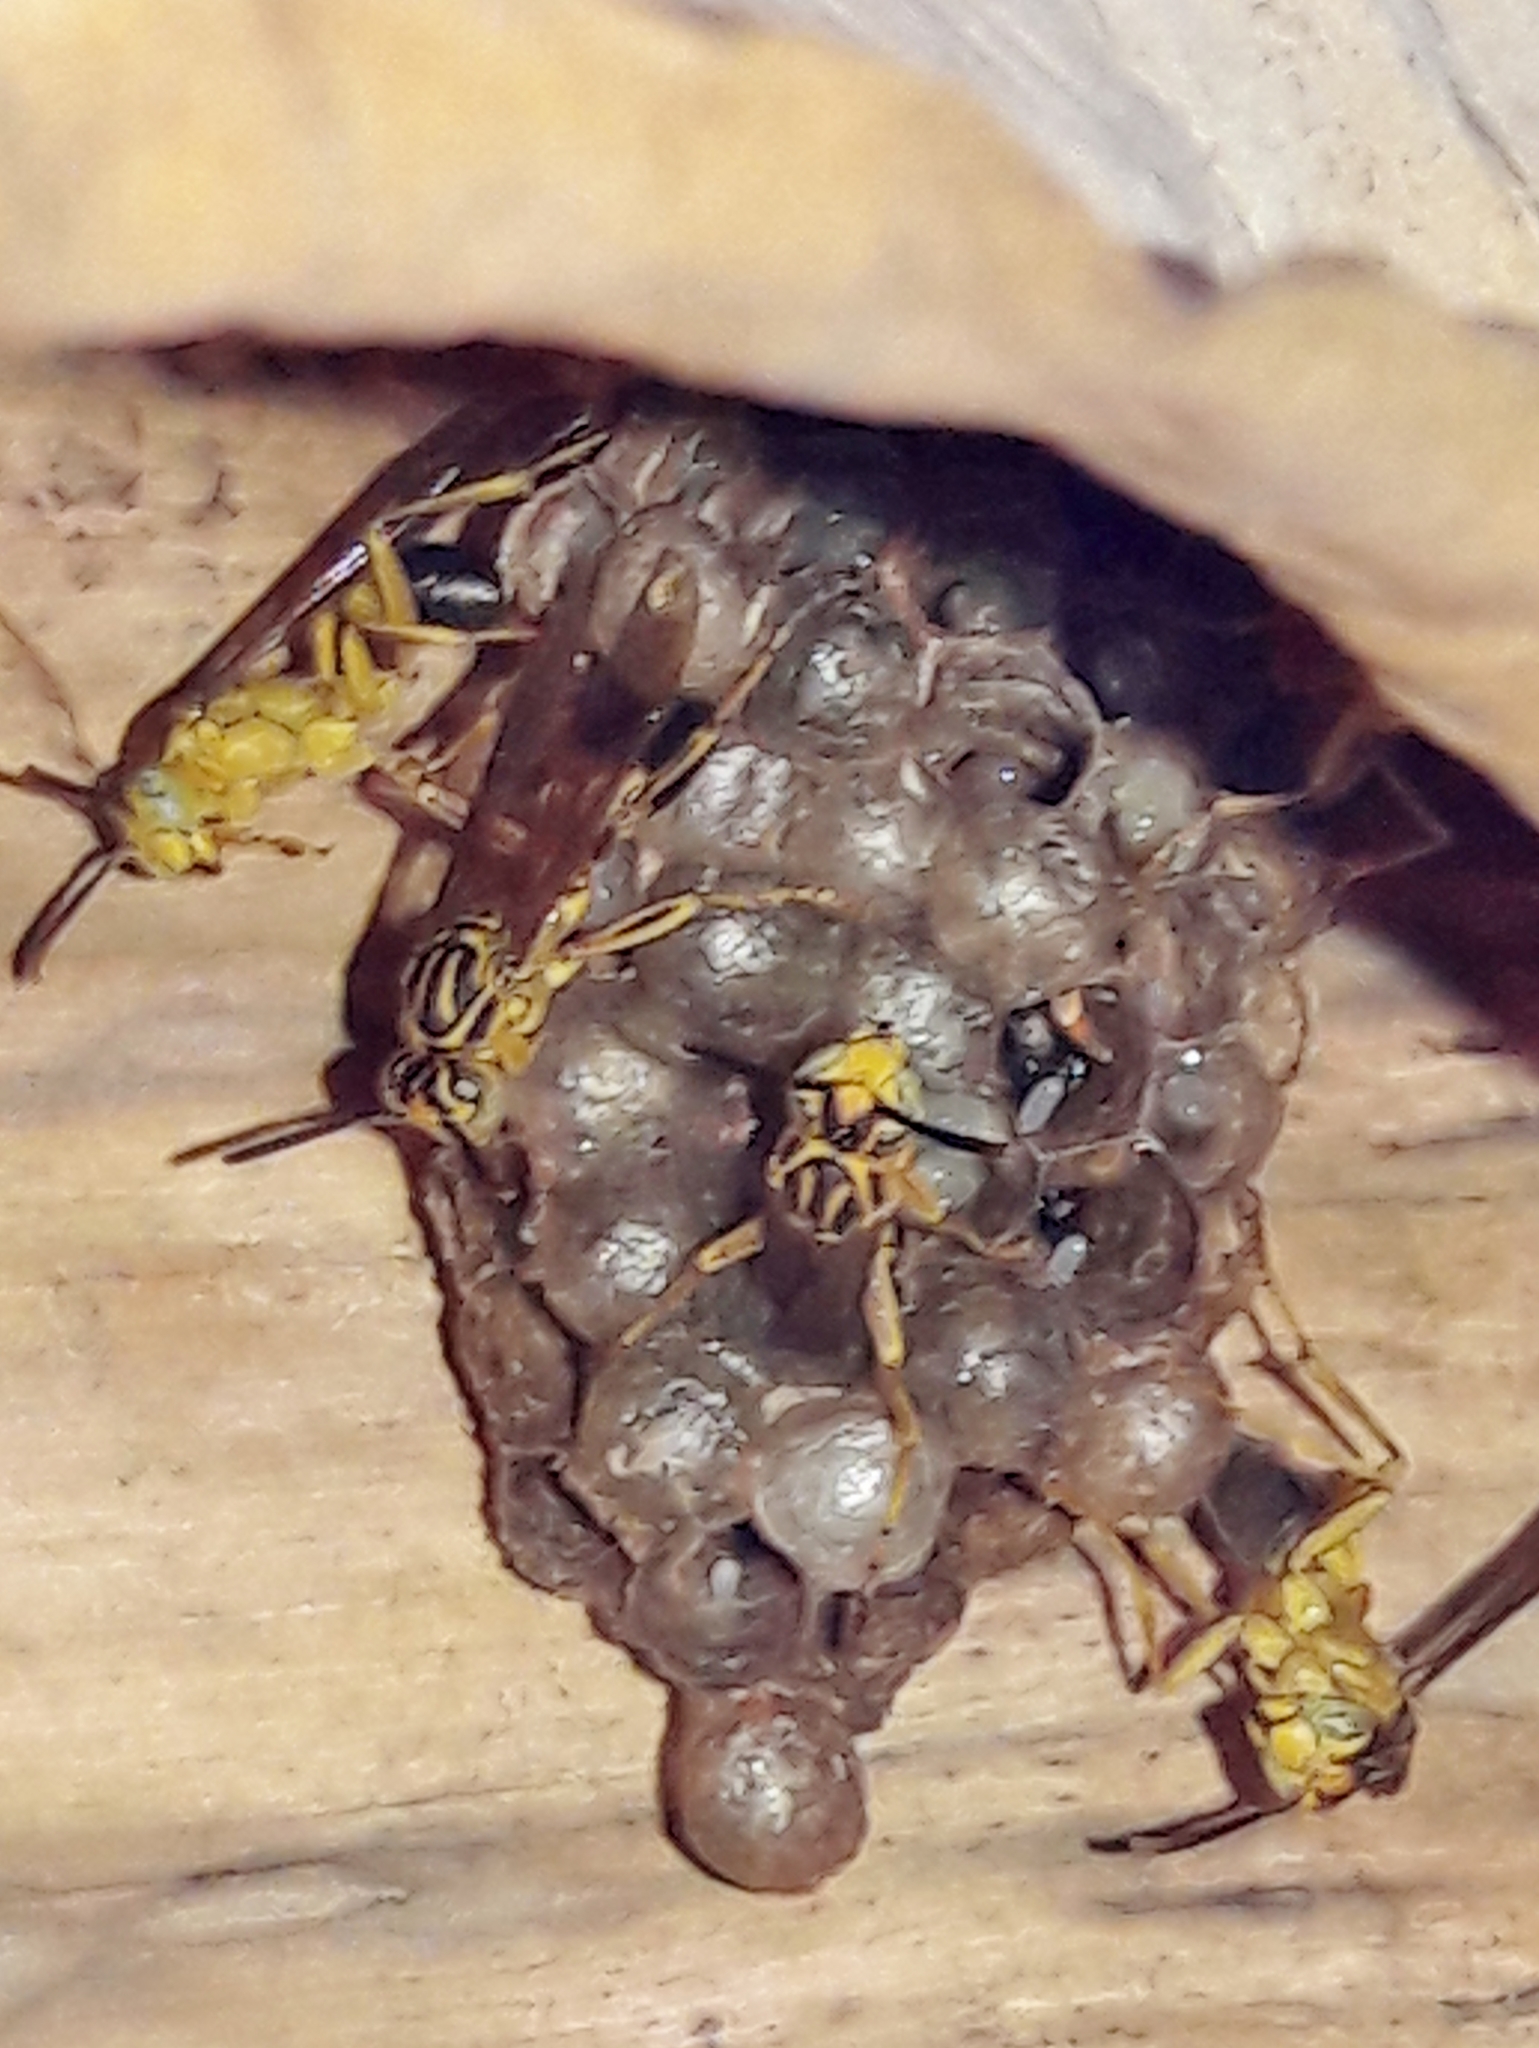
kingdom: Animalia
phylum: Arthropoda
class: Insecta
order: Hymenoptera
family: Vespidae
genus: Mischocyttarus
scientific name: Mischocyttarus cerberus
